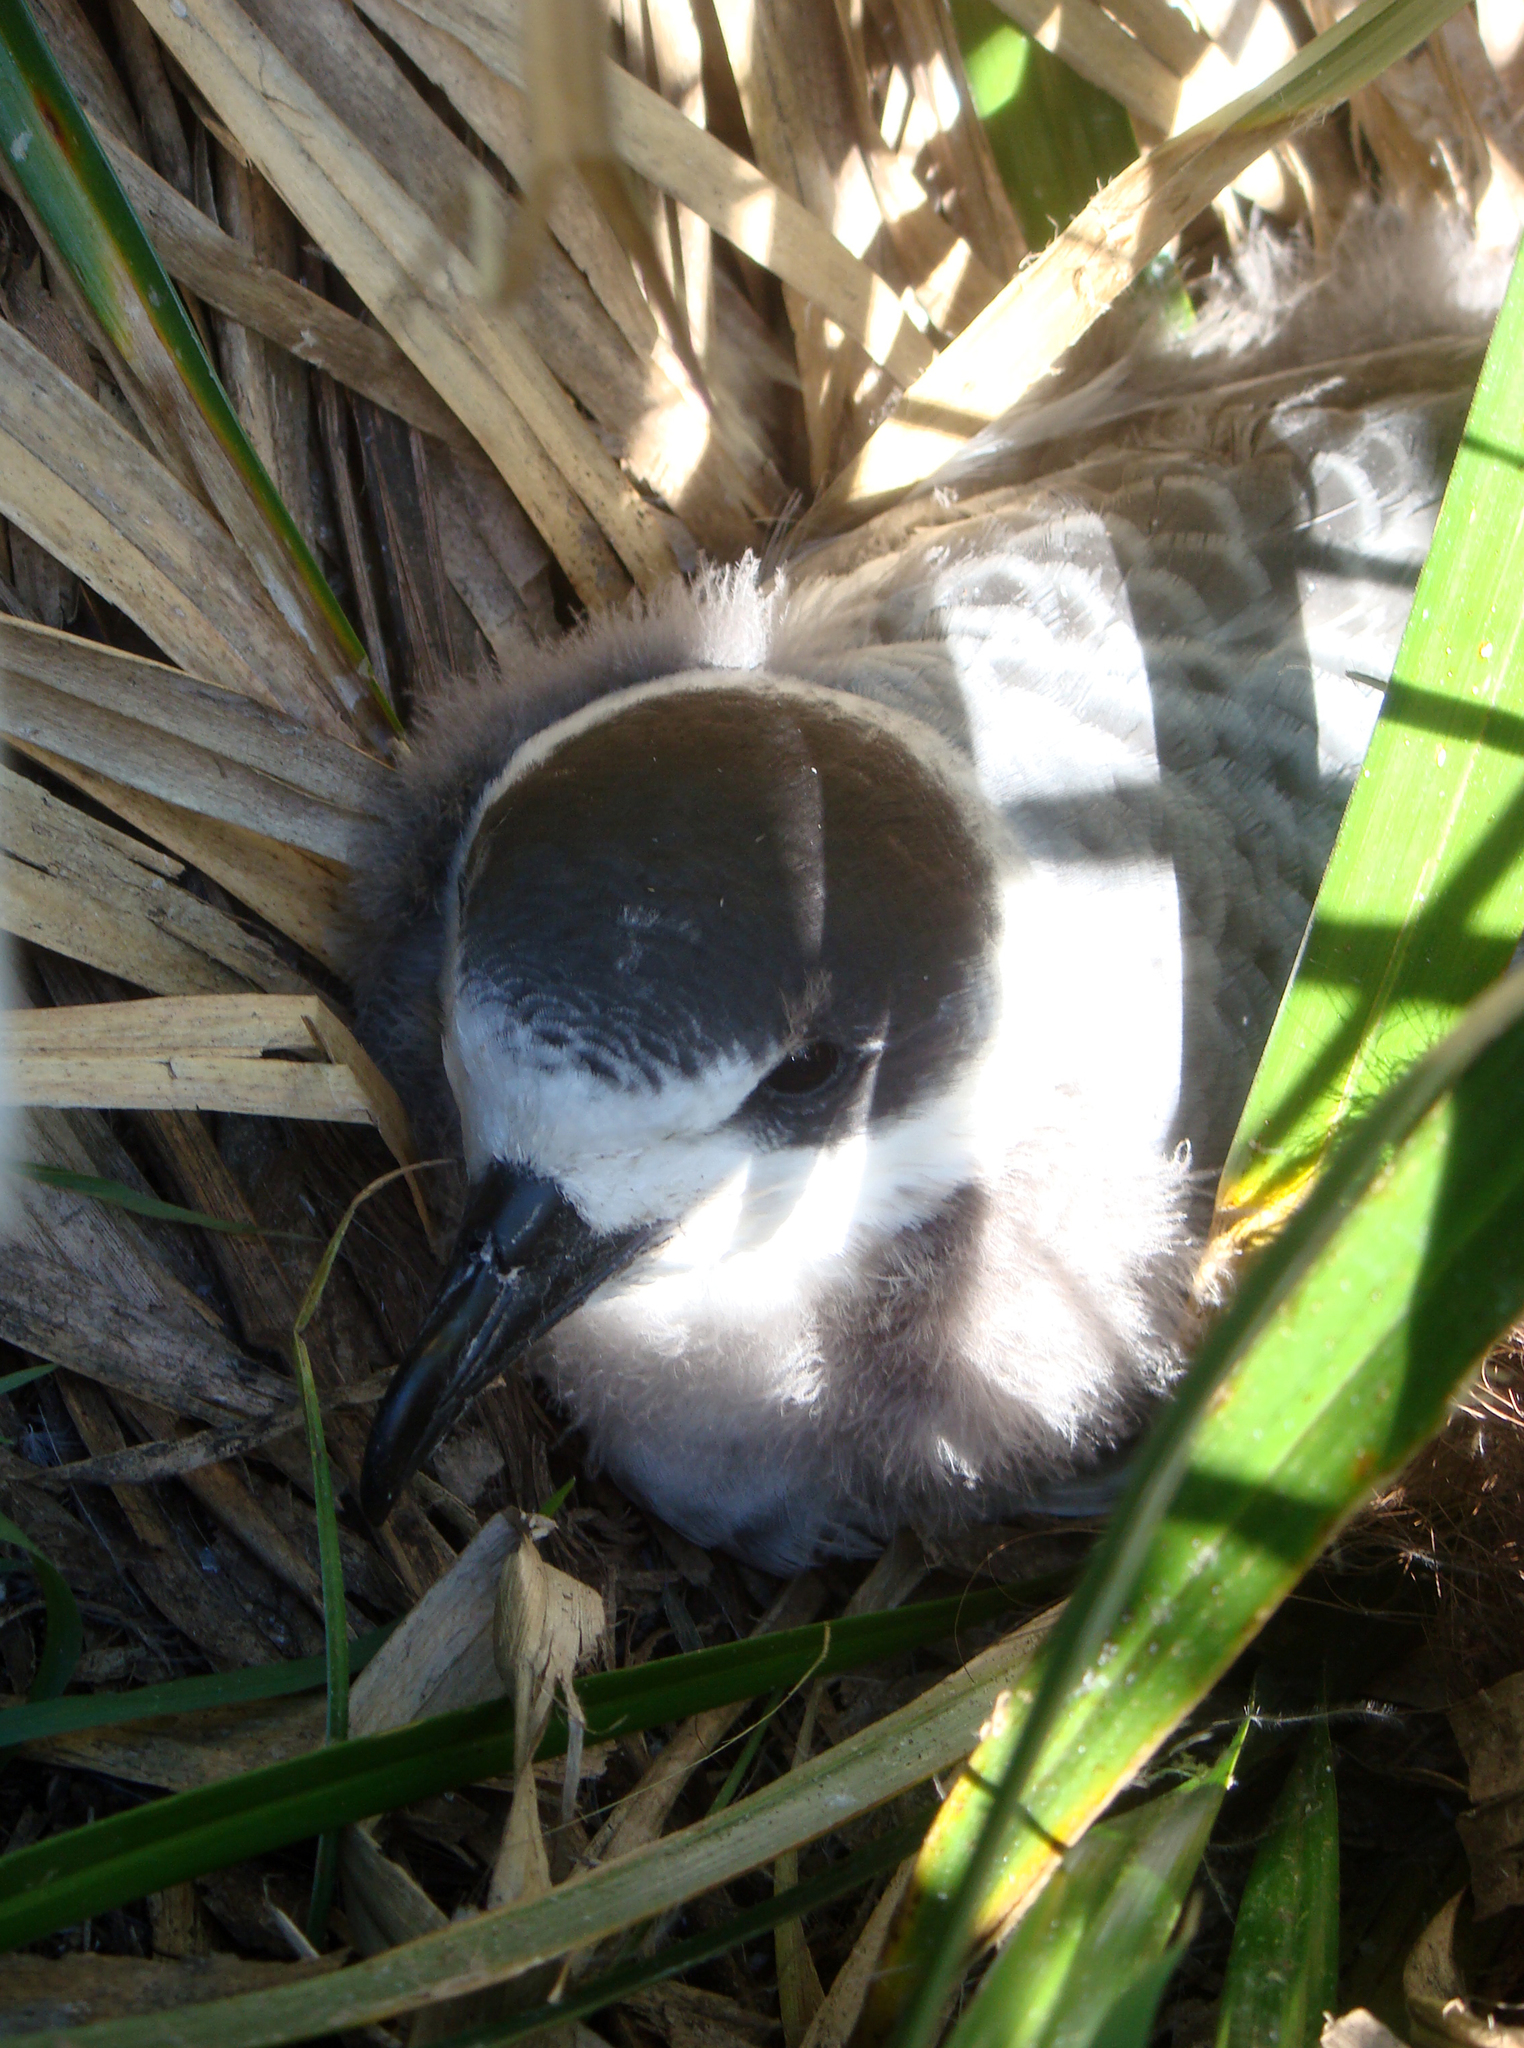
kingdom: Animalia
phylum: Chordata
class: Aves
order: Procellariiformes
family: Procellariidae
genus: Pterodroma
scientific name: Pterodroma cervicalis
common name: White-necked petrel
